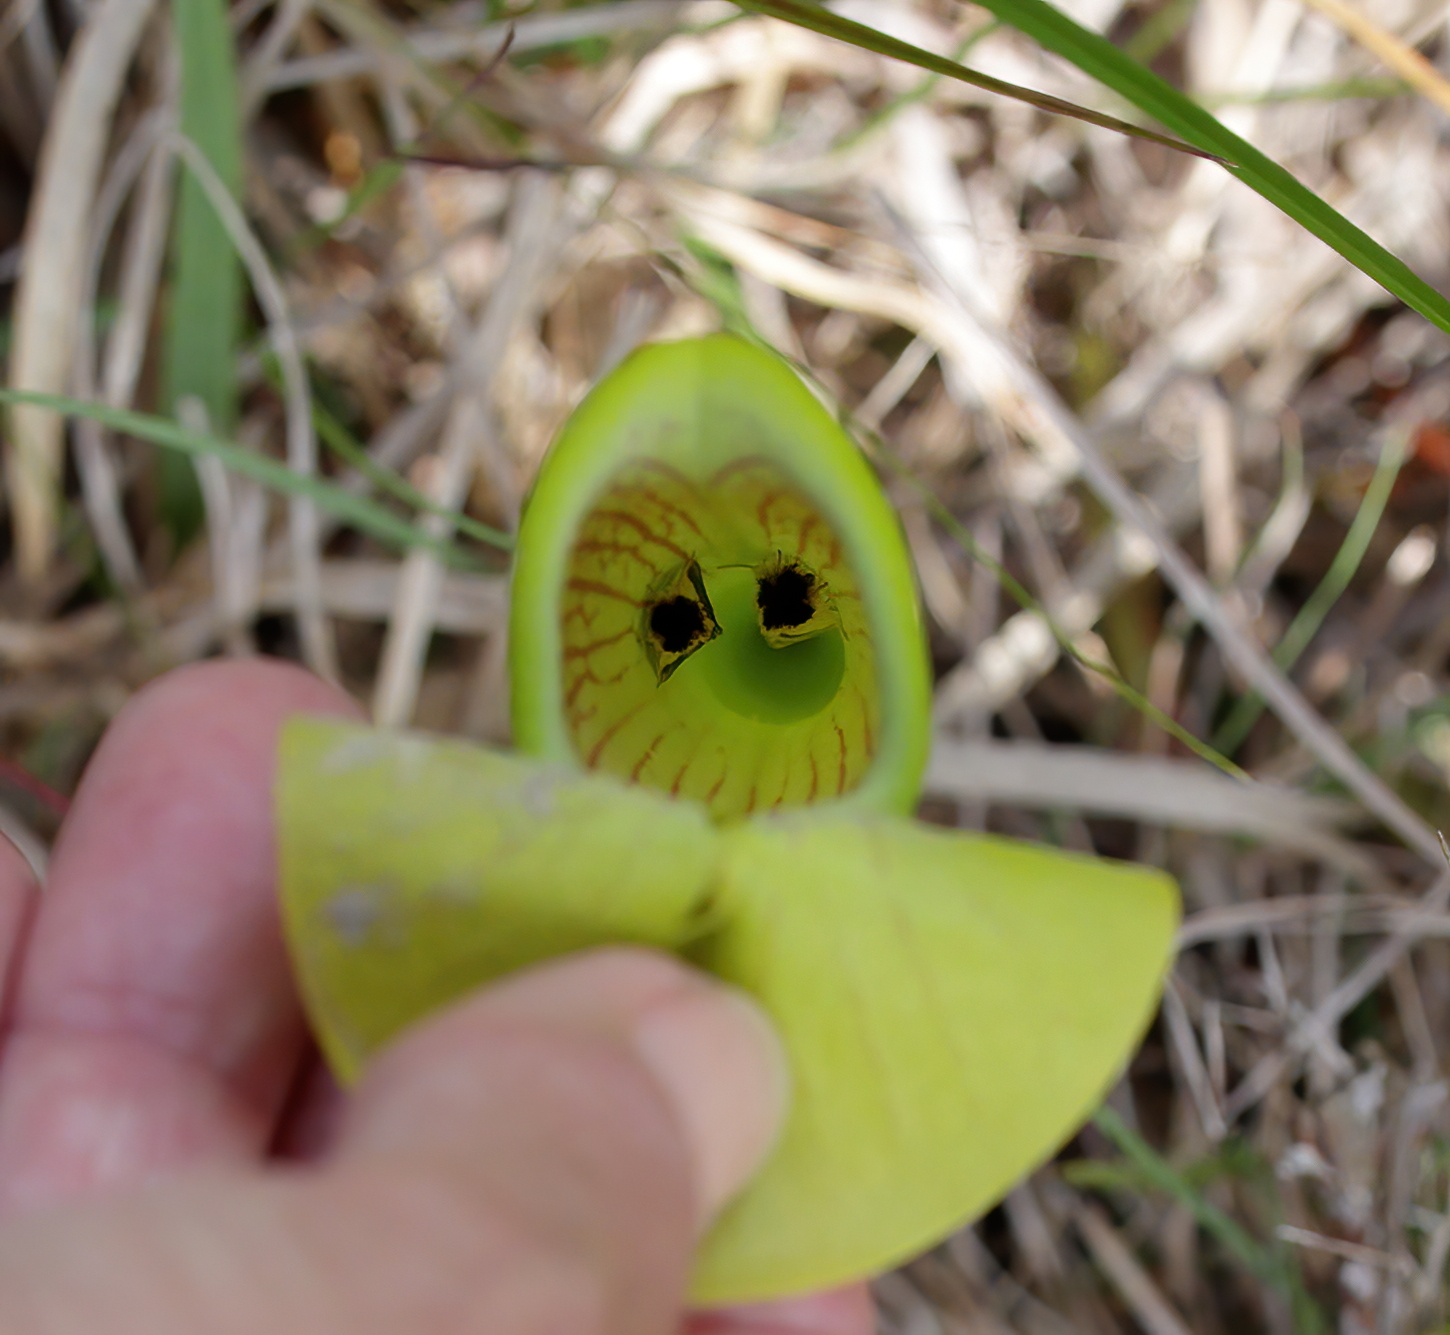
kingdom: Animalia
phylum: Arthropoda
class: Insecta
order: Lepidoptera
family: Noctuidae
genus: Exyra
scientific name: Exyra semicrocea
